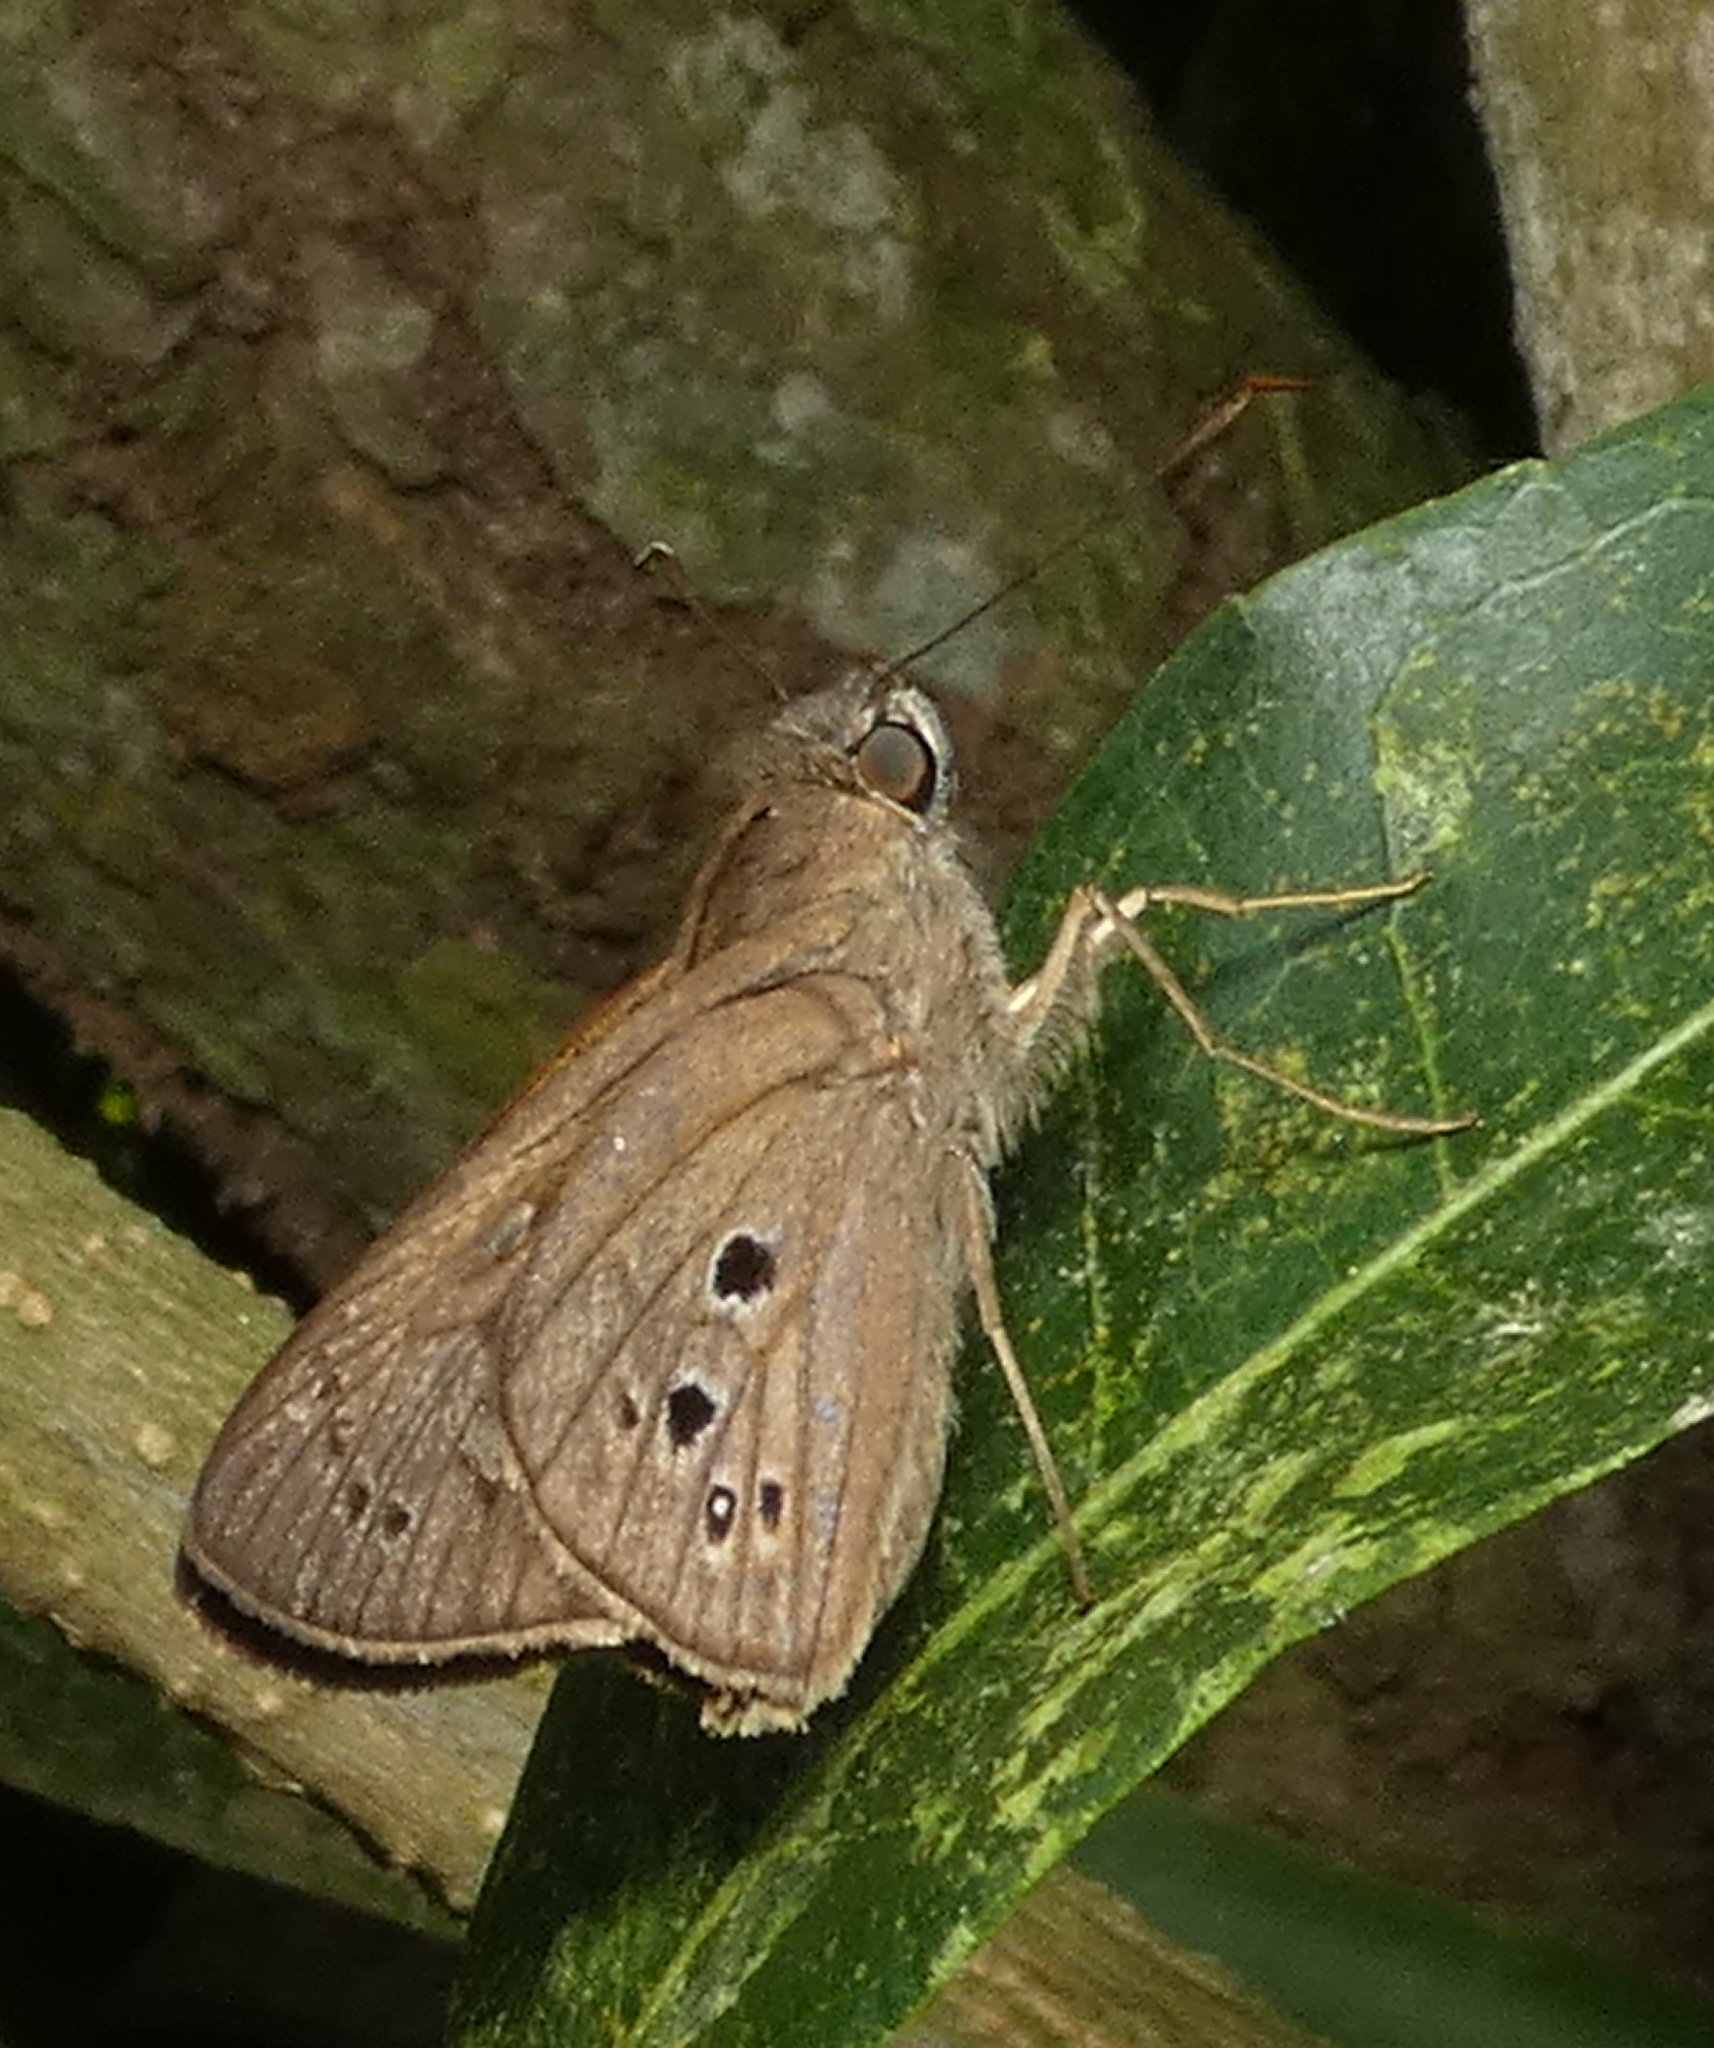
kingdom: Animalia
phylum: Arthropoda
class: Insecta
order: Lepidoptera
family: Hesperiidae
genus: Carystus
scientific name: Carystus
